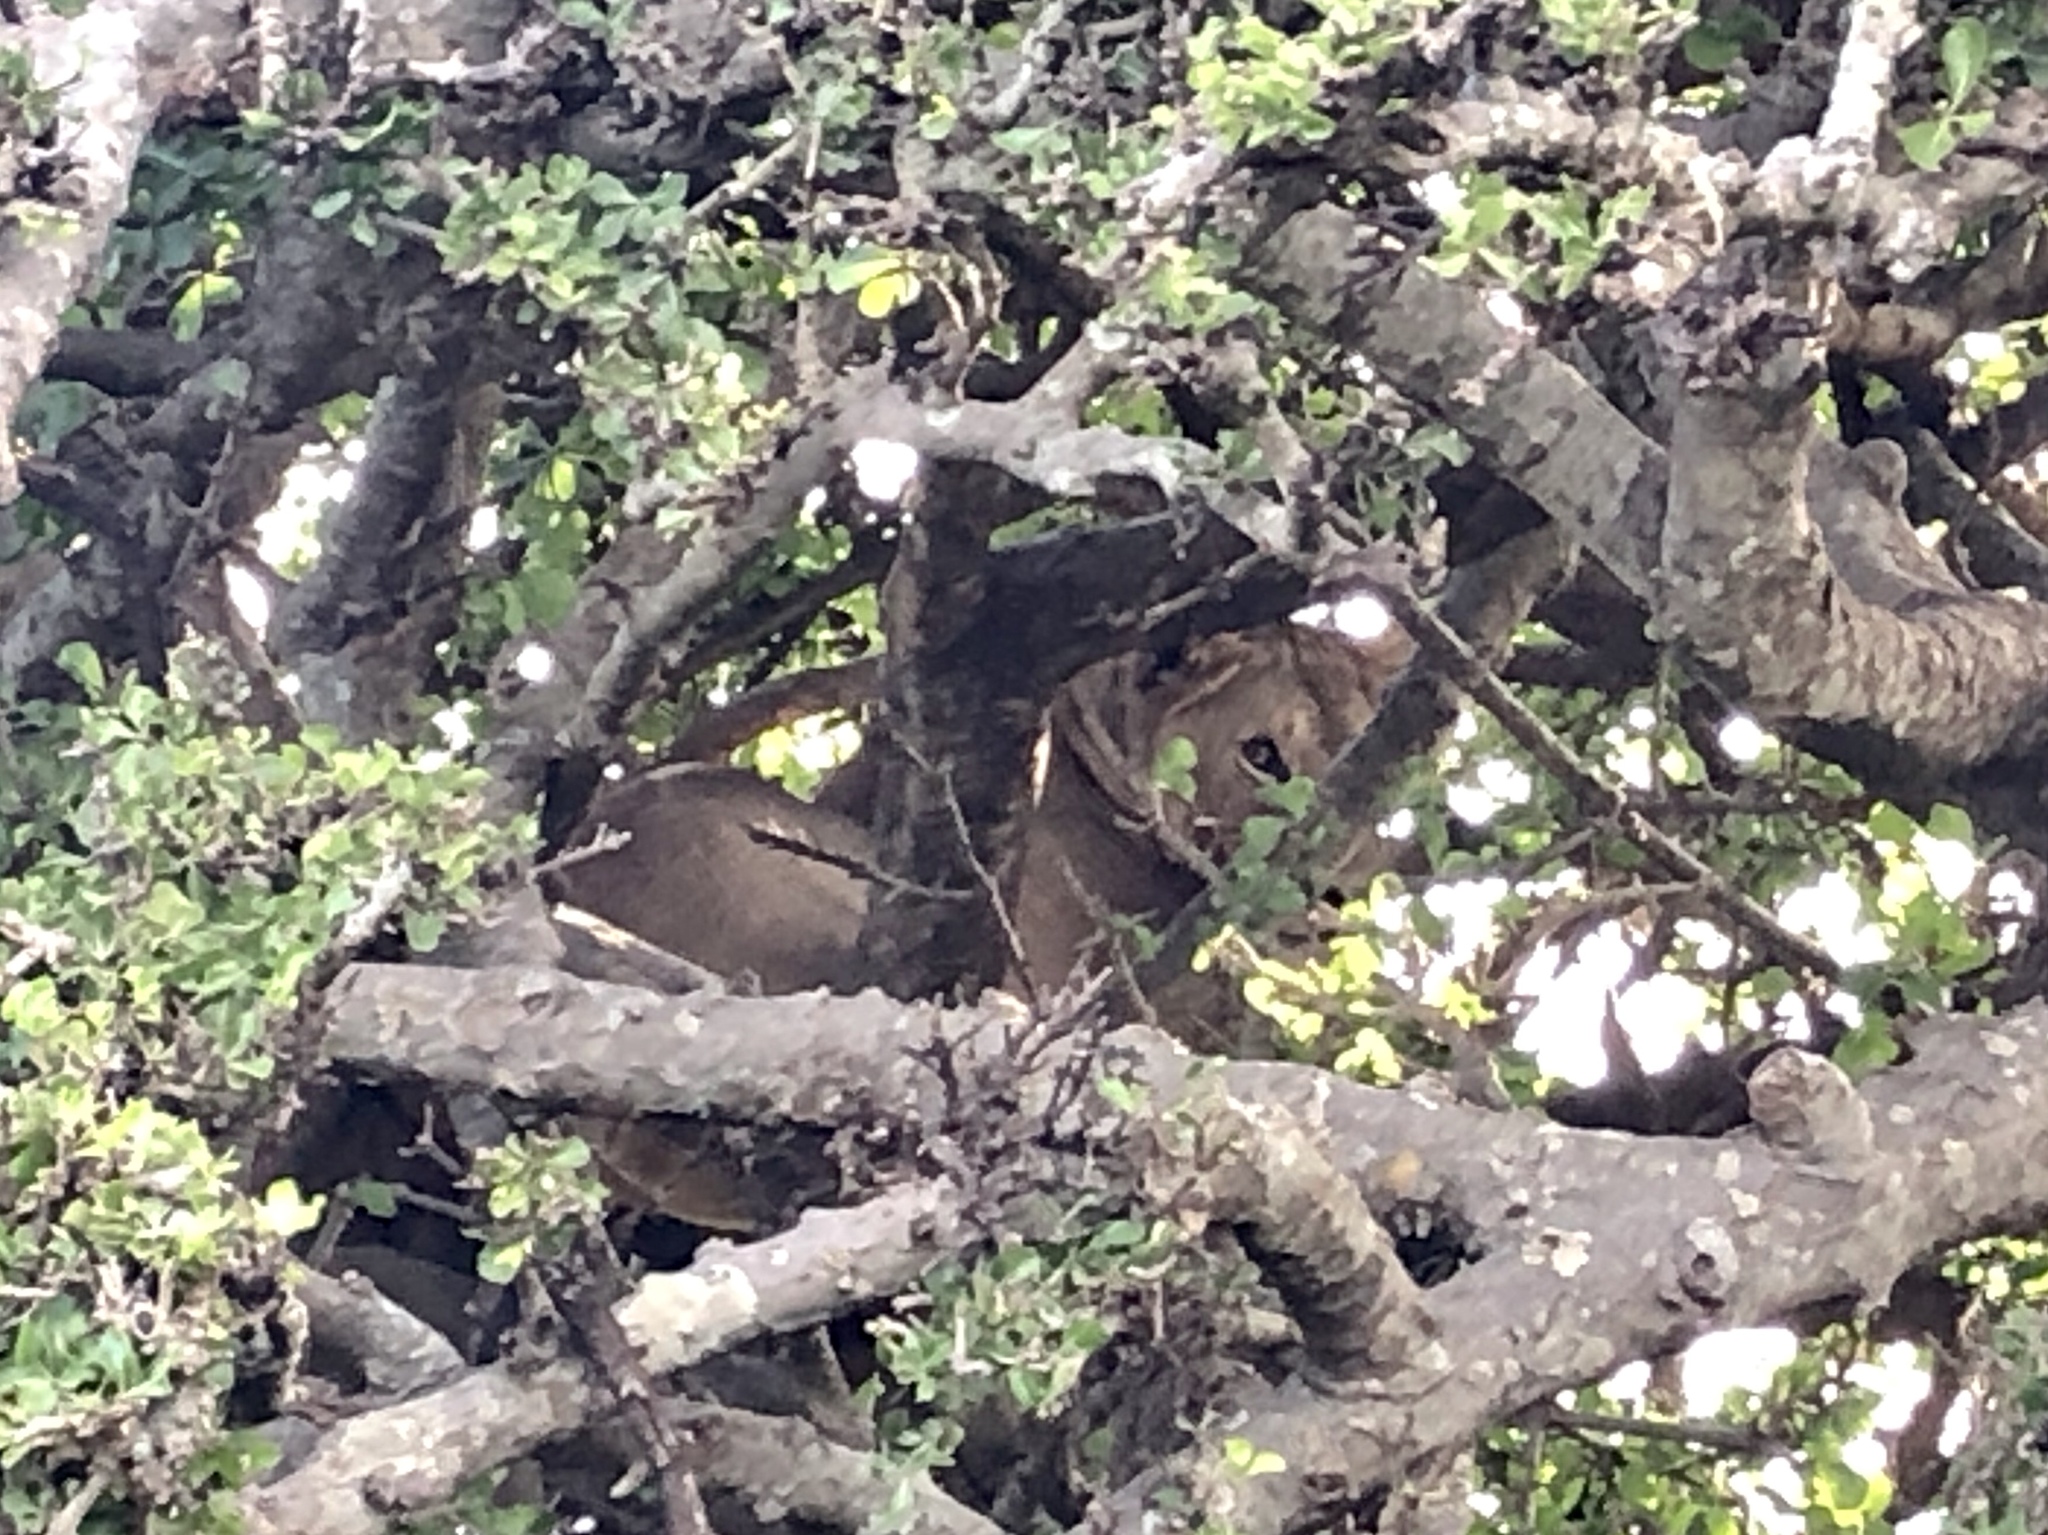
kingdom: Animalia
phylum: Chordata
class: Mammalia
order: Carnivora
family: Felidae
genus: Panthera
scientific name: Panthera leo
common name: Lion
